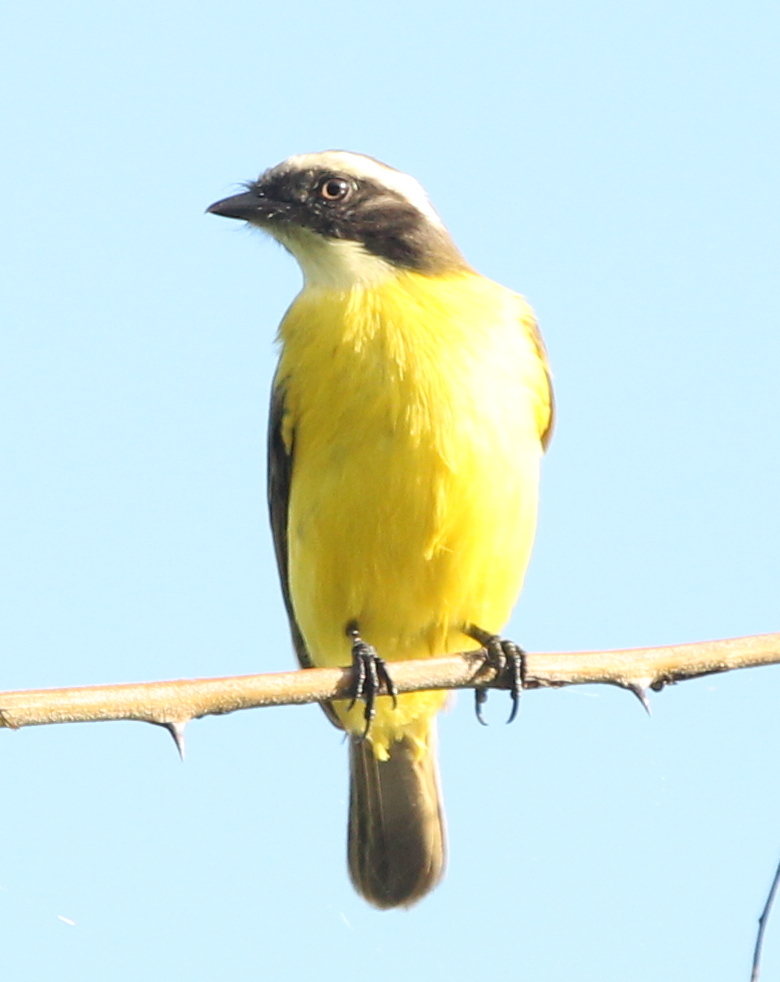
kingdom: Animalia
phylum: Chordata
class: Aves
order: Passeriformes
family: Tyrannidae
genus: Myiozetetes
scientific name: Myiozetetes similis
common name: Social flycatcher
